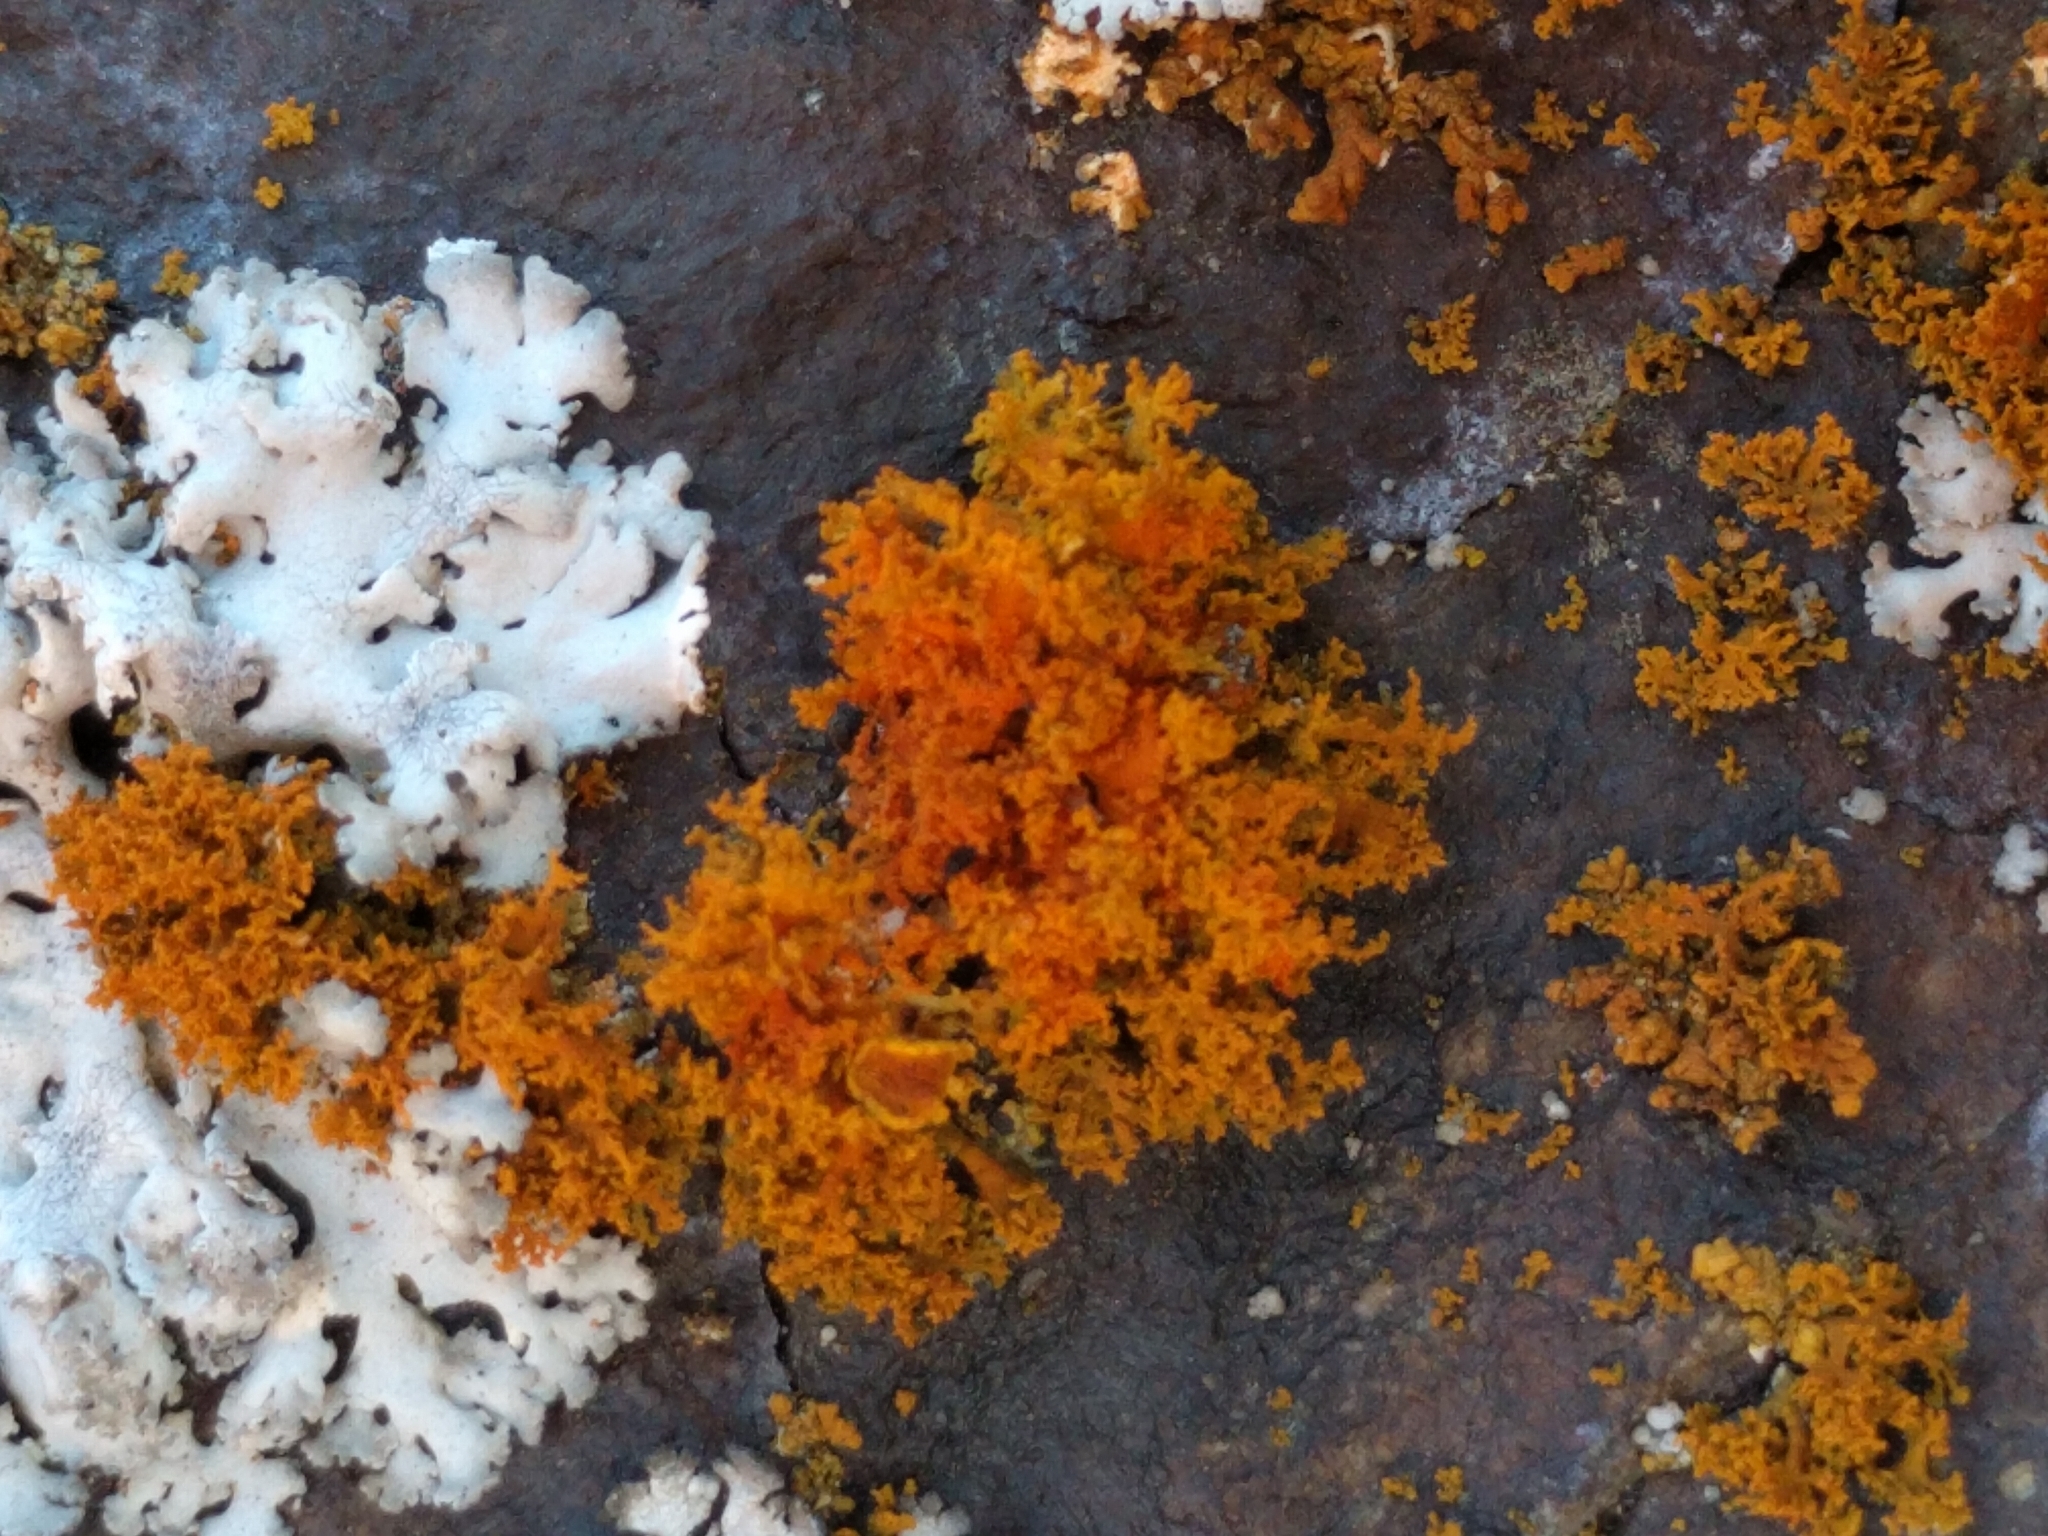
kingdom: Fungi
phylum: Ascomycota
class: Lecanoromycetes
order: Teloschistales
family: Teloschistaceae
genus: Polycauliona
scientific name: Polycauliona candelaria
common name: Shrubby sunburst lichen
